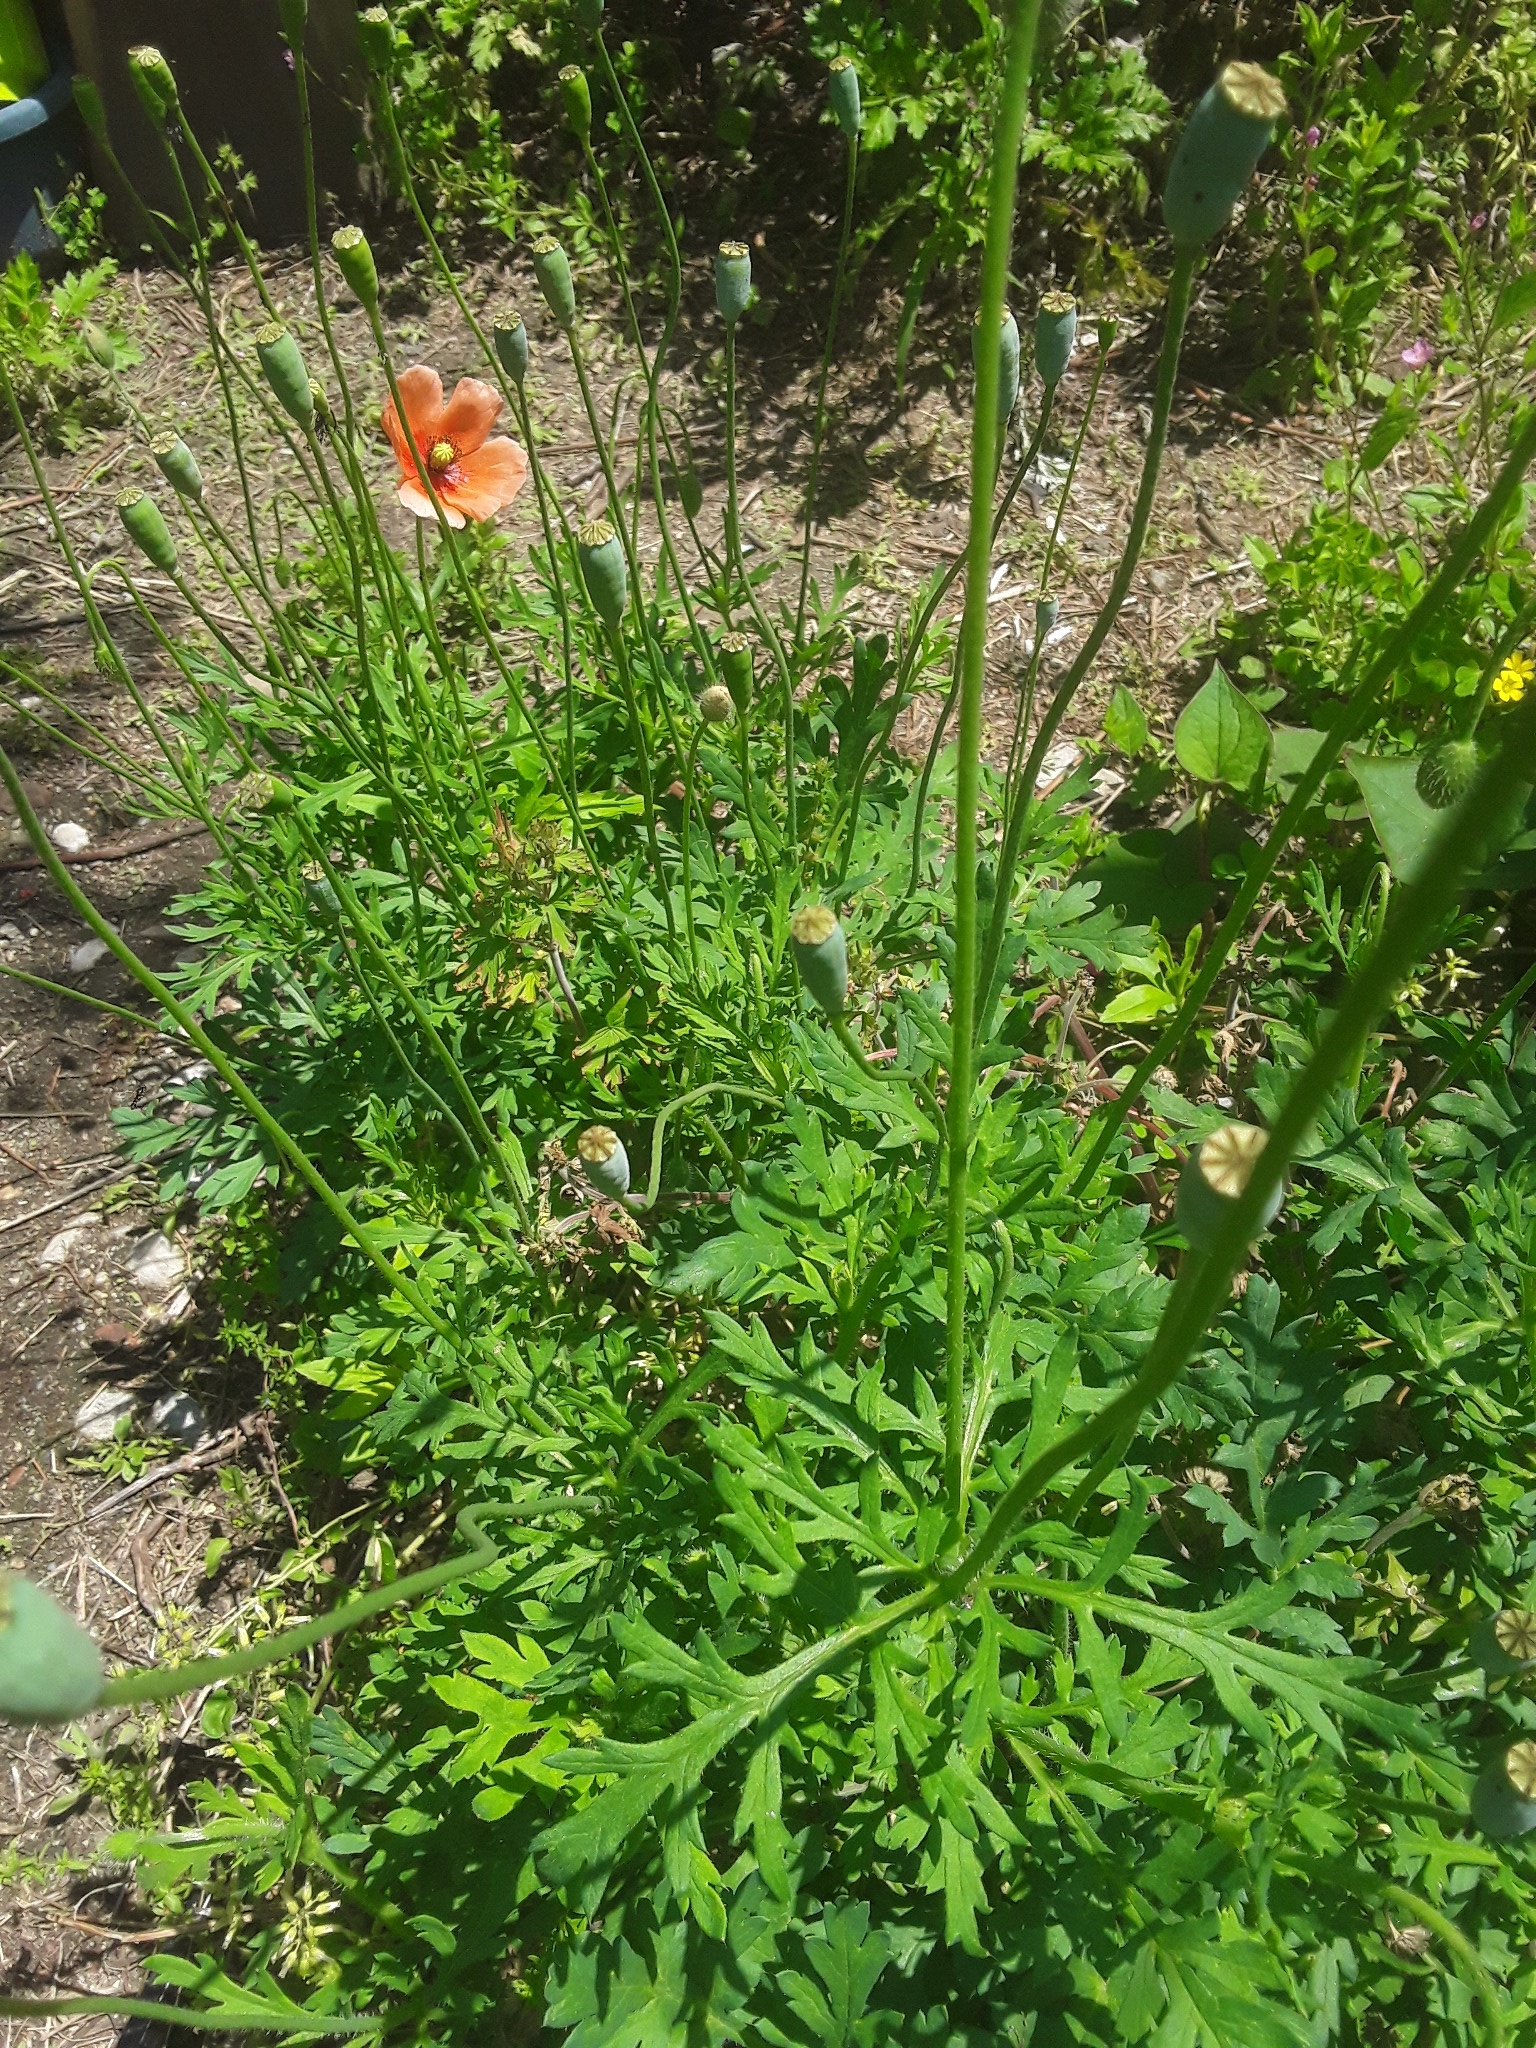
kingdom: Plantae
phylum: Tracheophyta
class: Magnoliopsida
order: Ranunculales
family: Papaveraceae
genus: Papaver
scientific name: Papaver dubium
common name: Long-headed poppy
